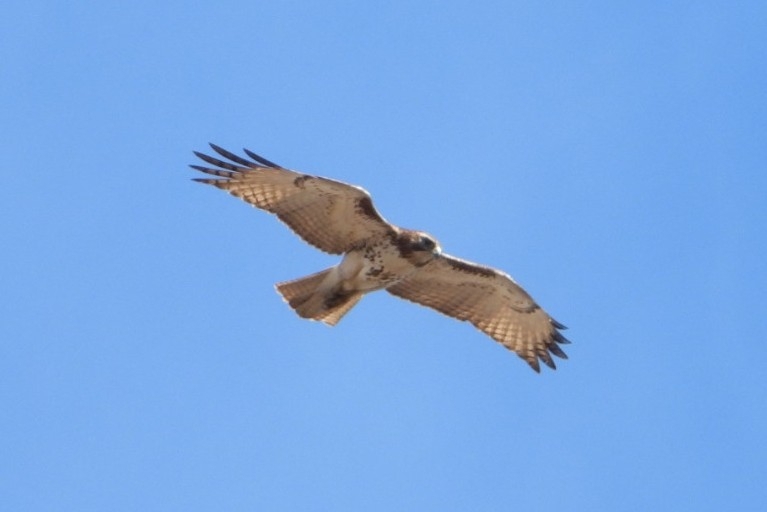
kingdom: Animalia
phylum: Chordata
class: Aves
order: Accipitriformes
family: Accipitridae
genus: Buteo
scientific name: Buteo jamaicensis
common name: Red-tailed hawk
